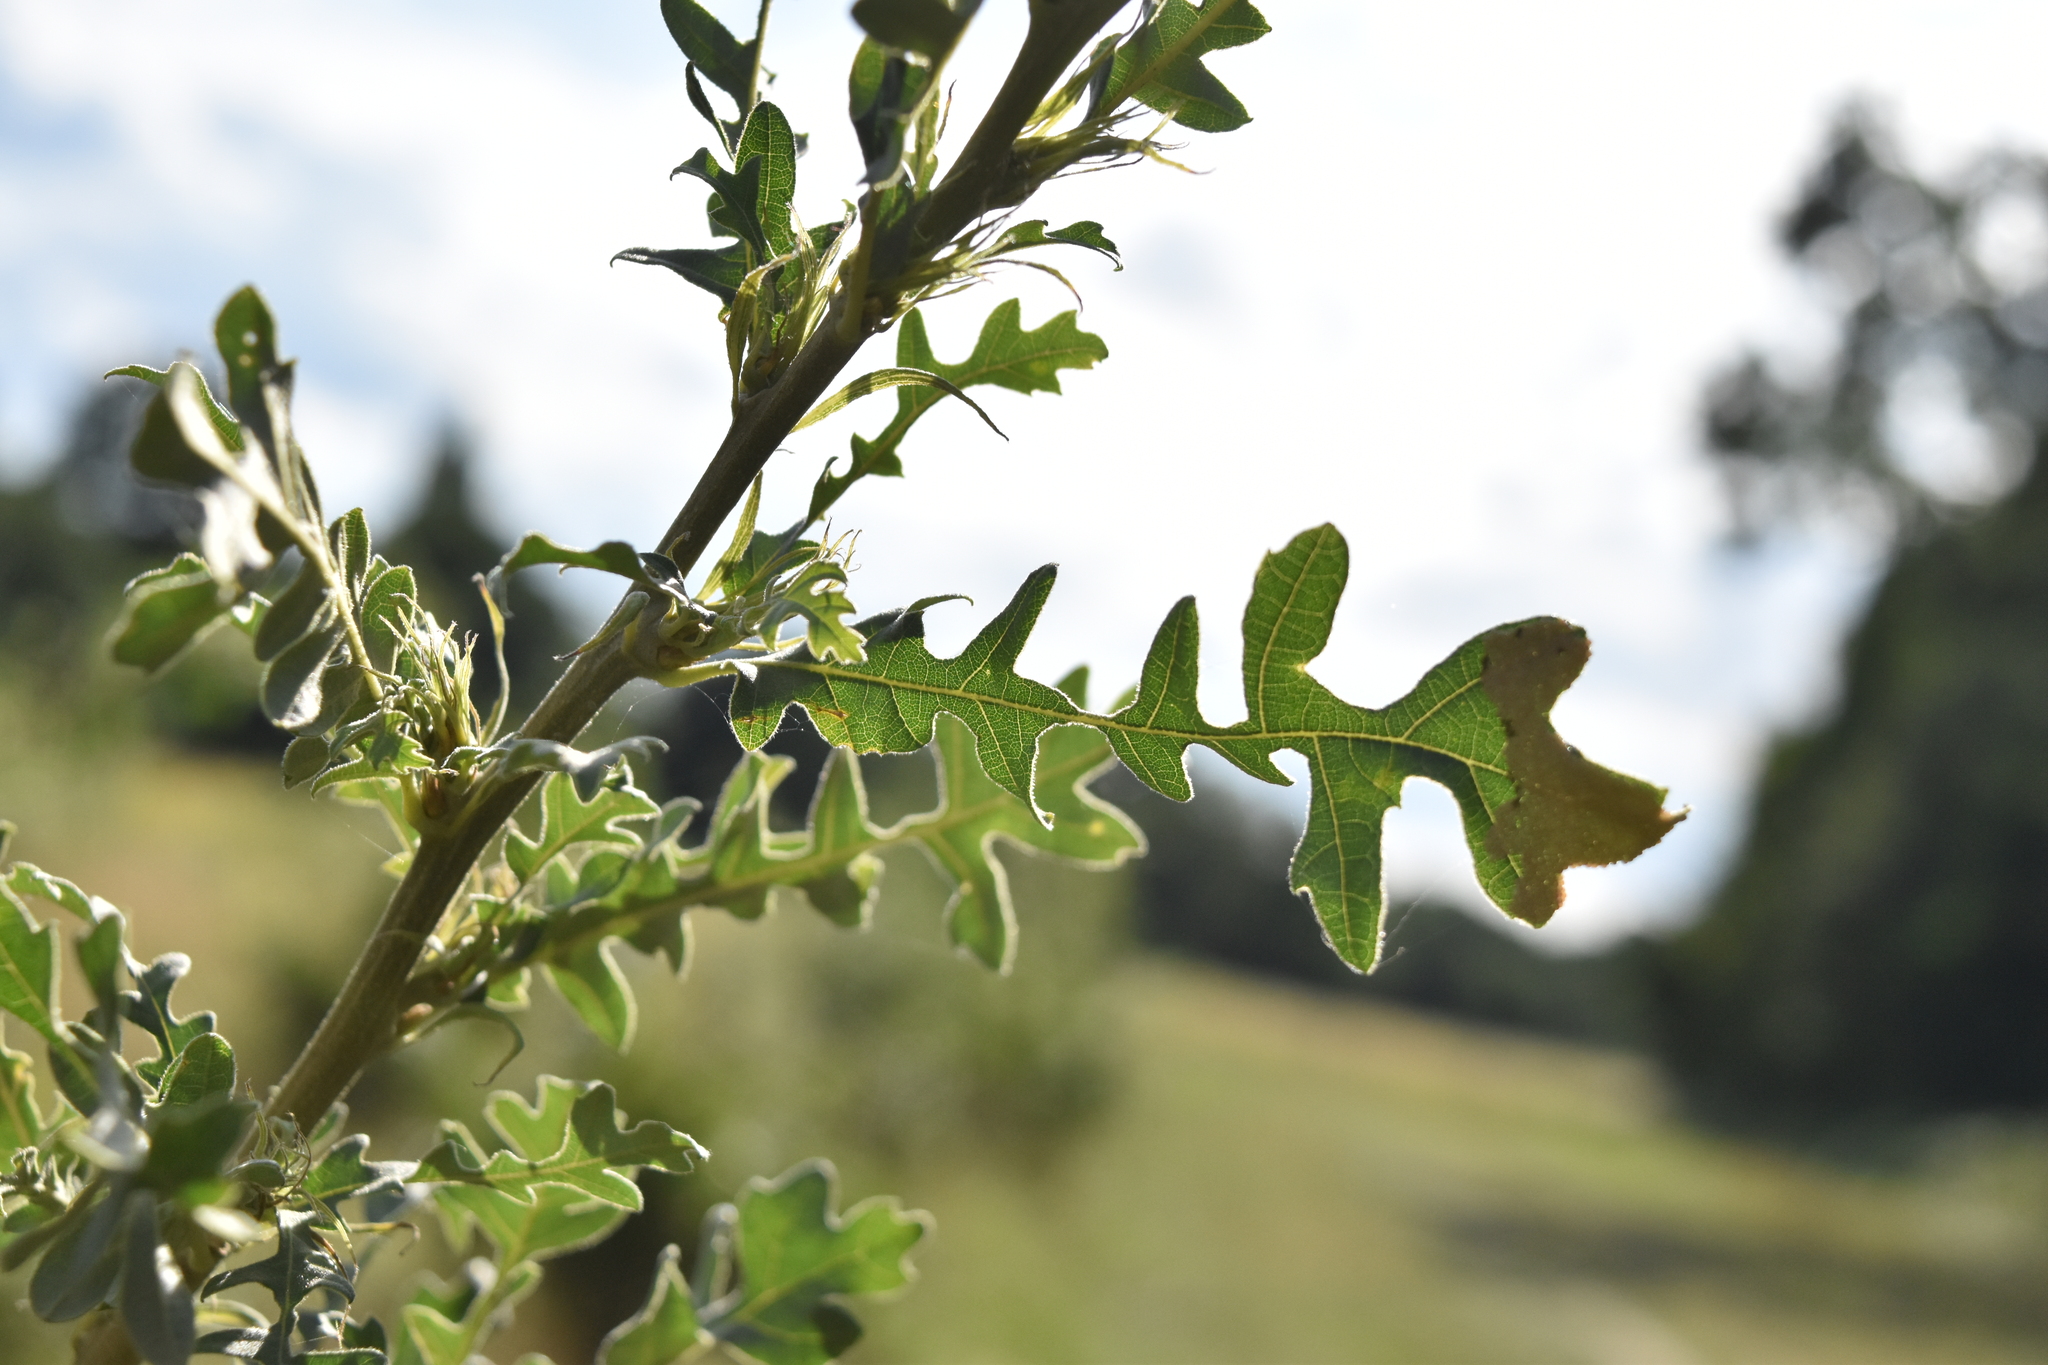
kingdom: Plantae
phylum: Tracheophyta
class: Magnoliopsida
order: Fagales
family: Fagaceae
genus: Quercus
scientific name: Quercus cerris
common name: Turkey oak
